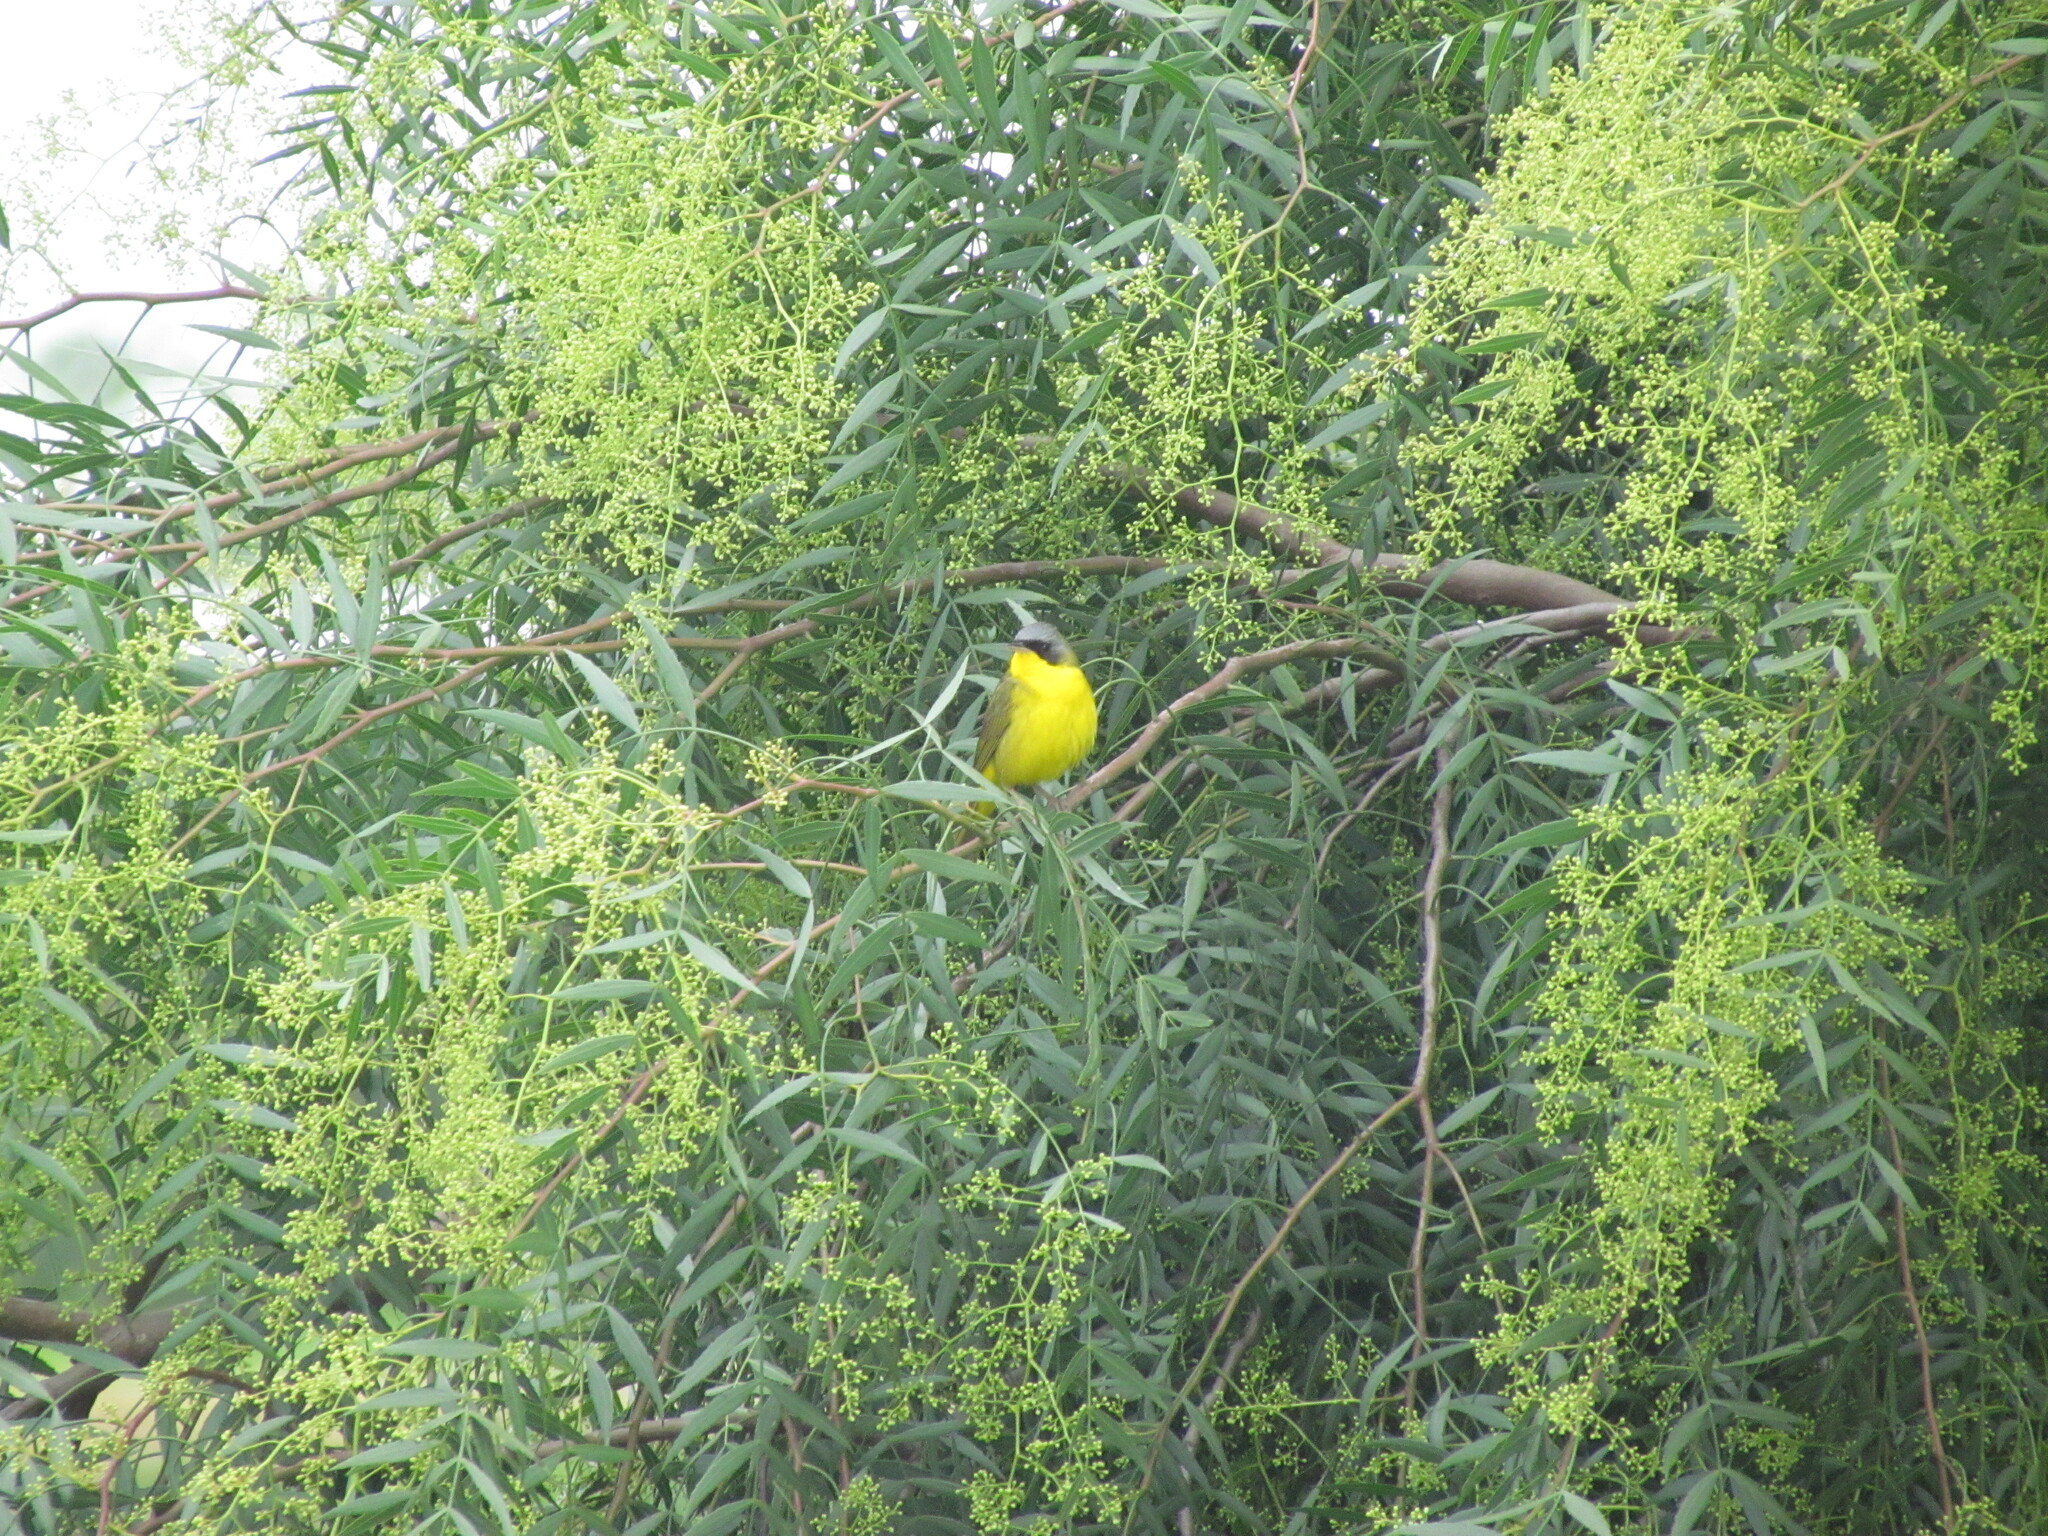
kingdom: Animalia
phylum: Chordata
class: Aves
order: Passeriformes
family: Parulidae
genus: Geothlypis
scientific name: Geothlypis velata
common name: Southern yellowthroat
